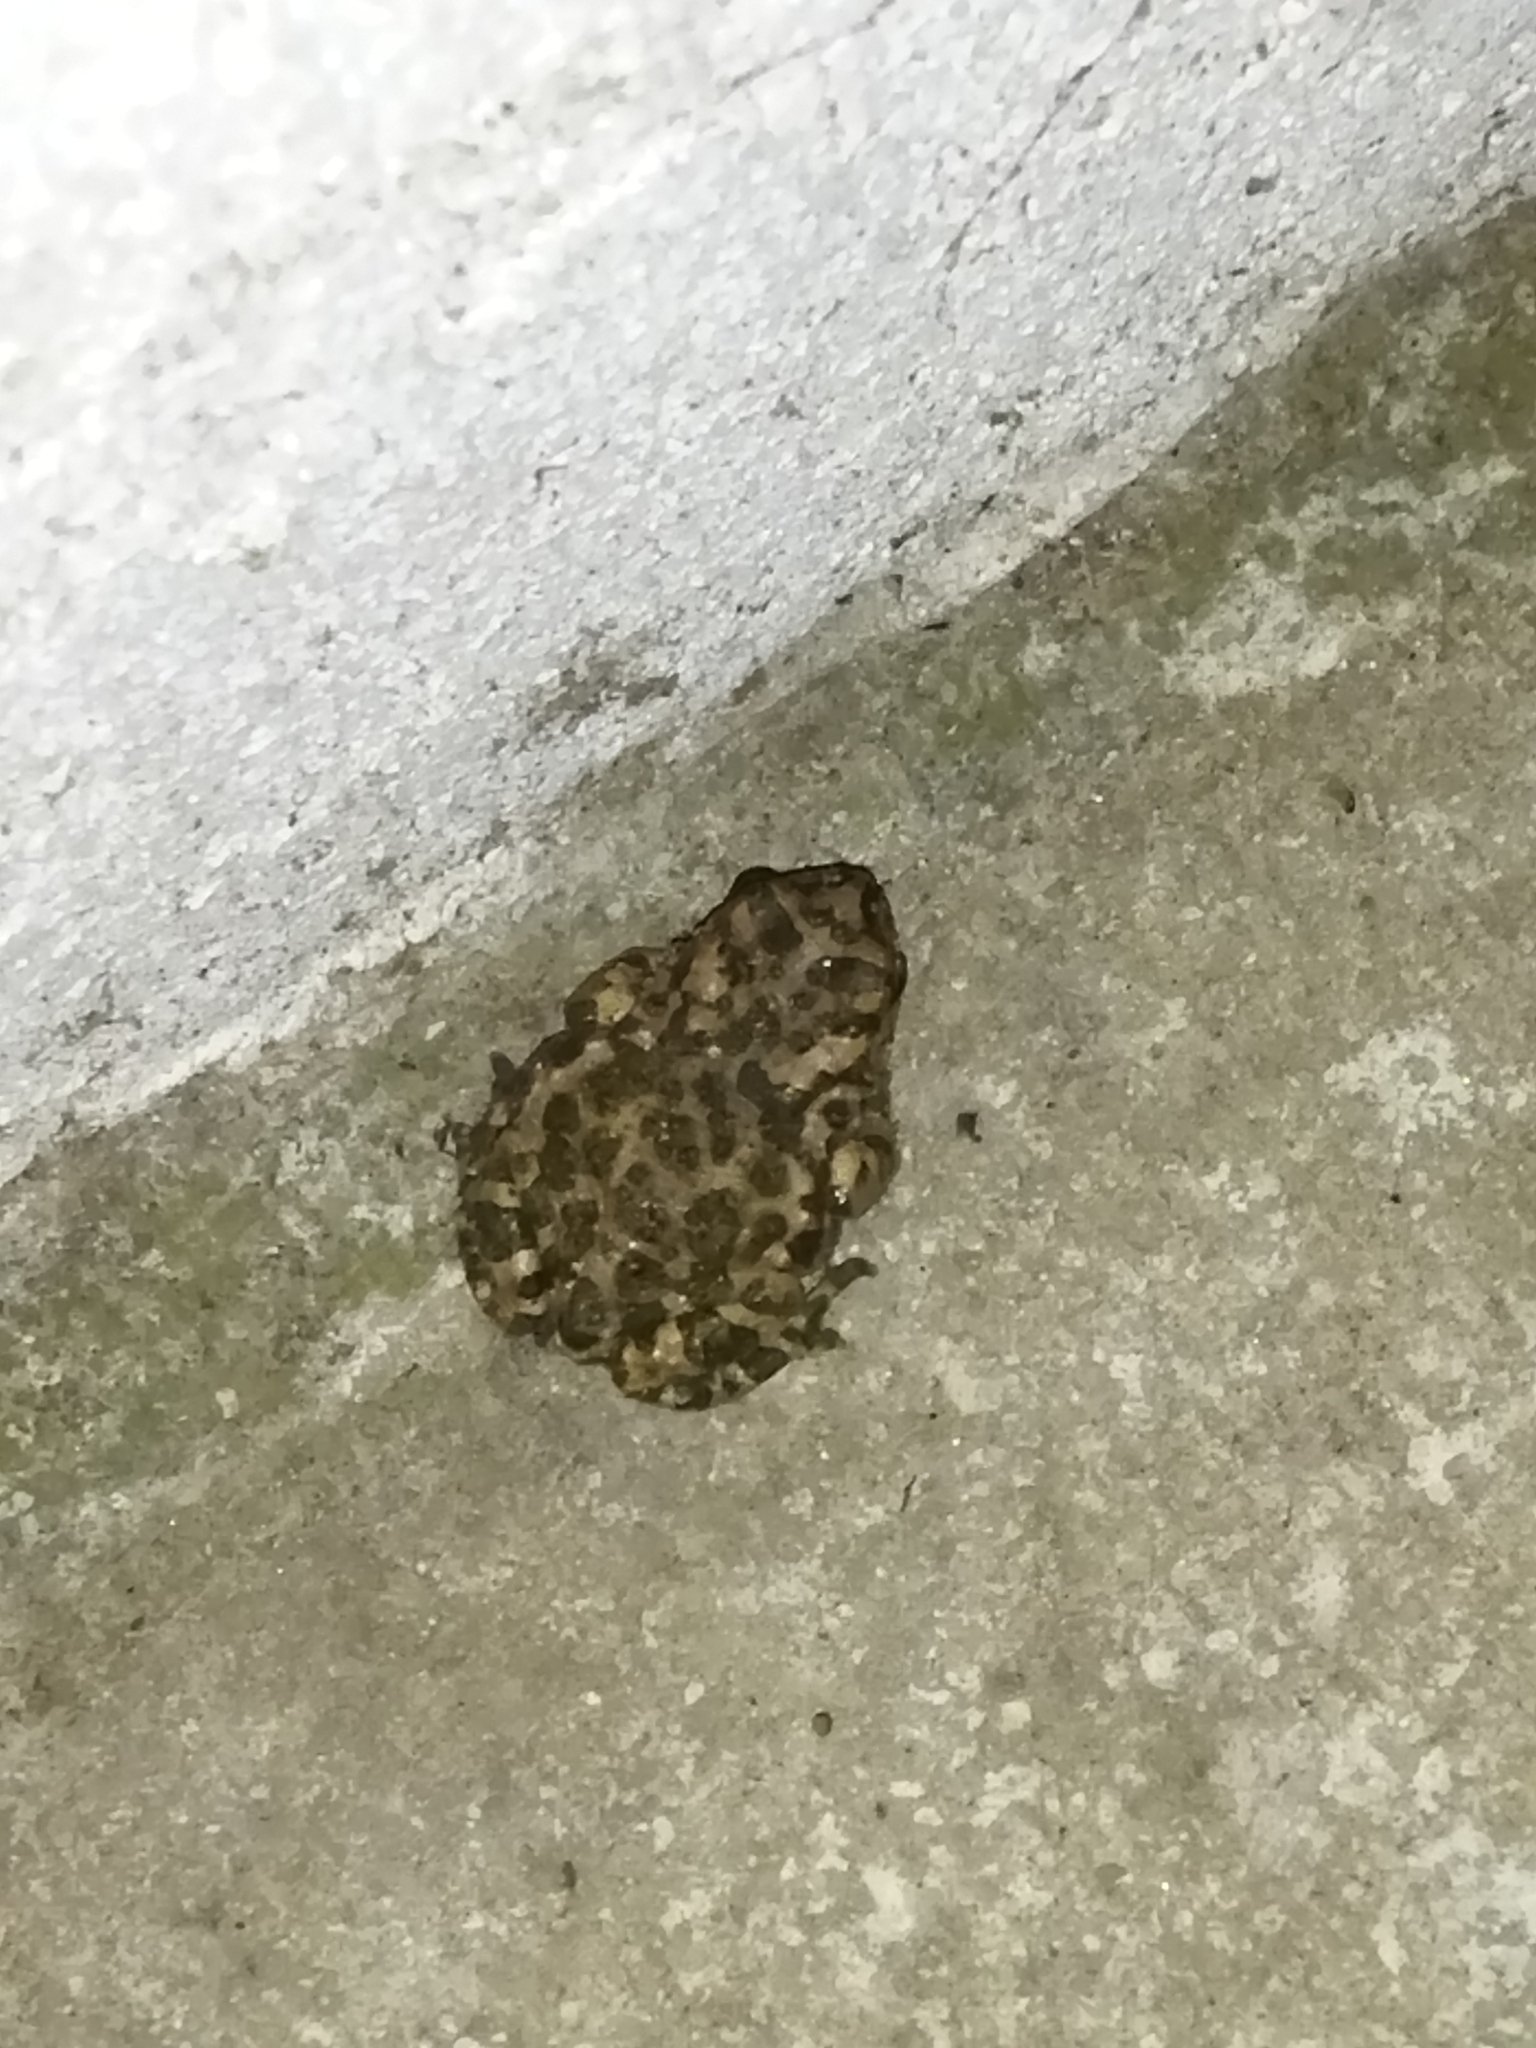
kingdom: Animalia
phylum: Chordata
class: Amphibia
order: Anura
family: Bufonidae
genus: Bufotes
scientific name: Bufotes viridis
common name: European green toad
